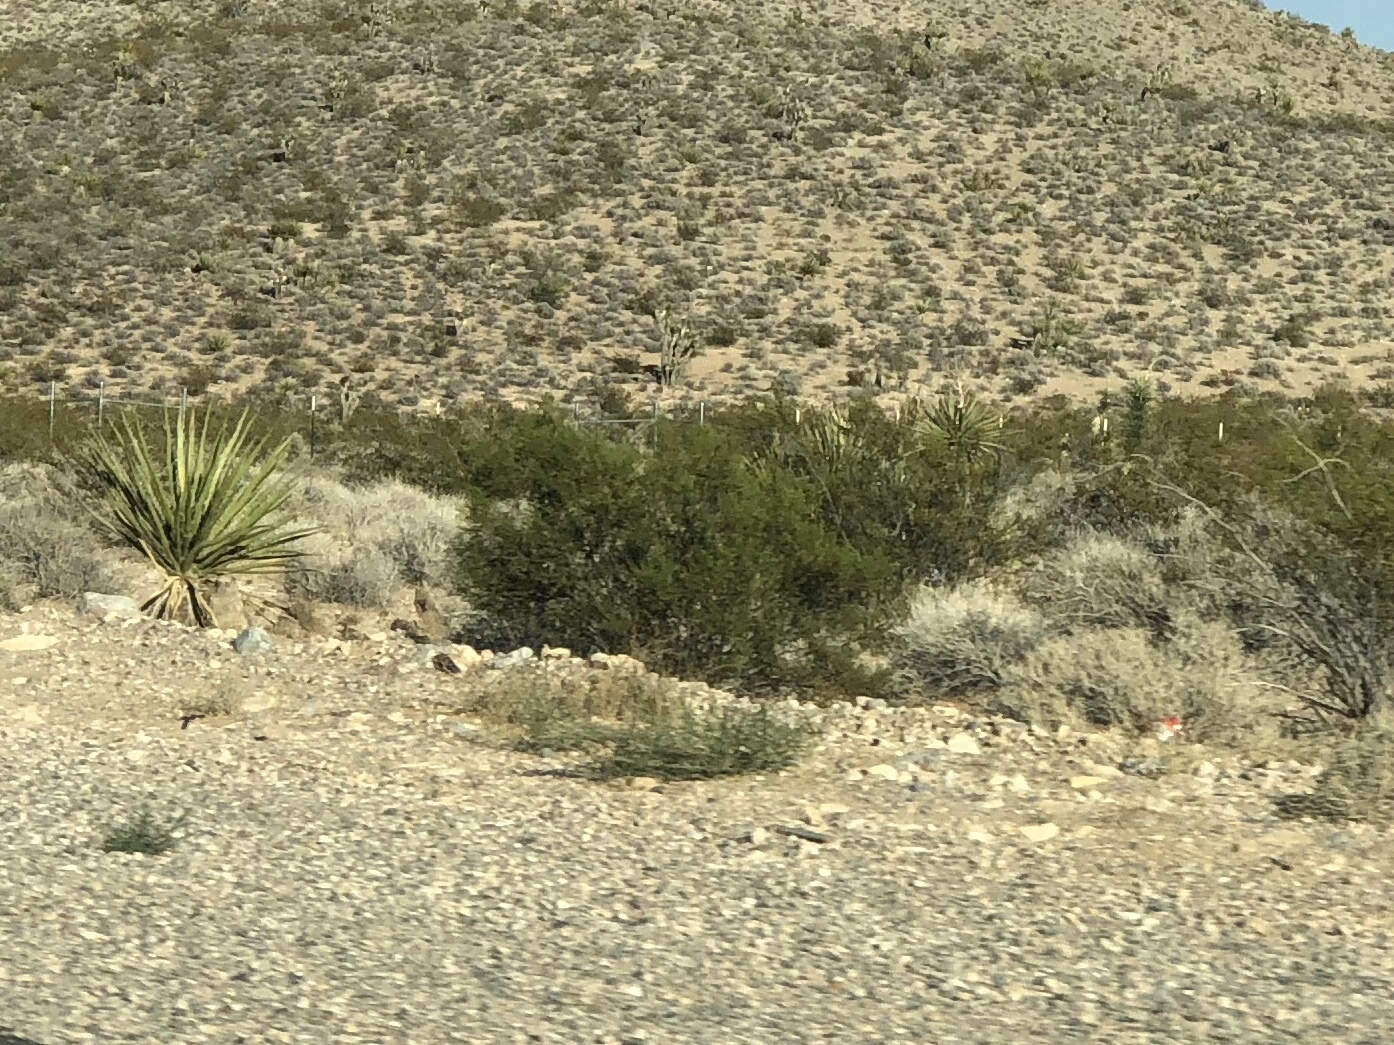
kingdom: Plantae
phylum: Tracheophyta
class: Magnoliopsida
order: Zygophyllales
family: Zygophyllaceae
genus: Larrea
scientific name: Larrea tridentata
